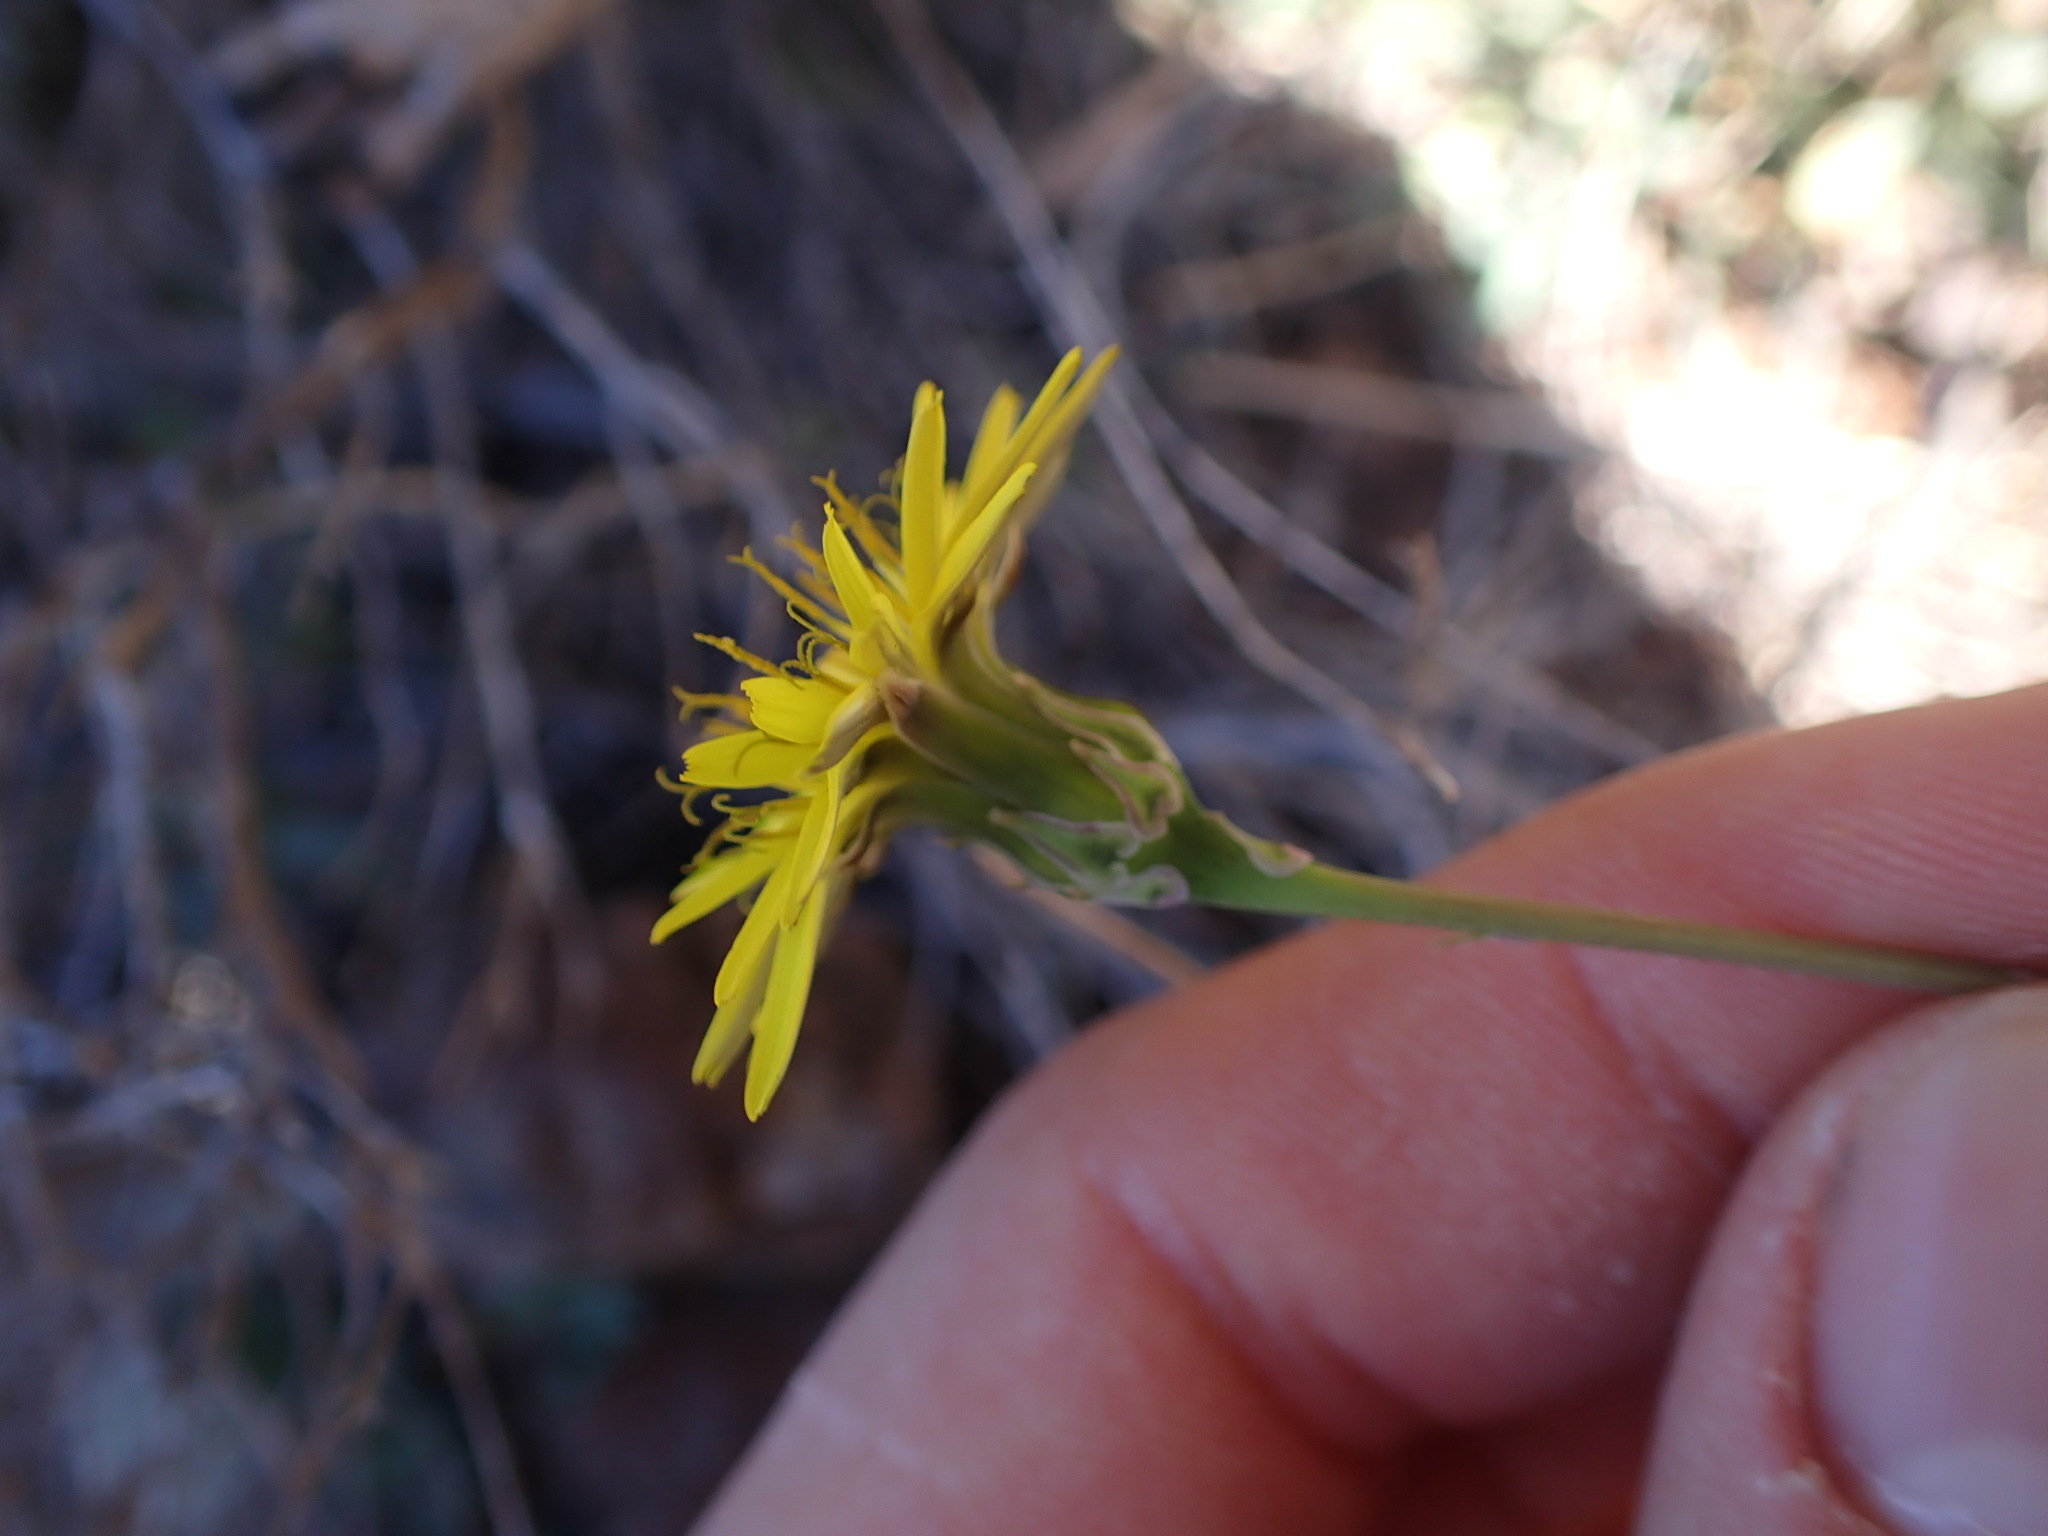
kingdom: Plantae
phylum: Tracheophyta
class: Magnoliopsida
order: Asterales
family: Asteraceae
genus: Reichardia
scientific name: Reichardia picroides
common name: Common brighteyes
